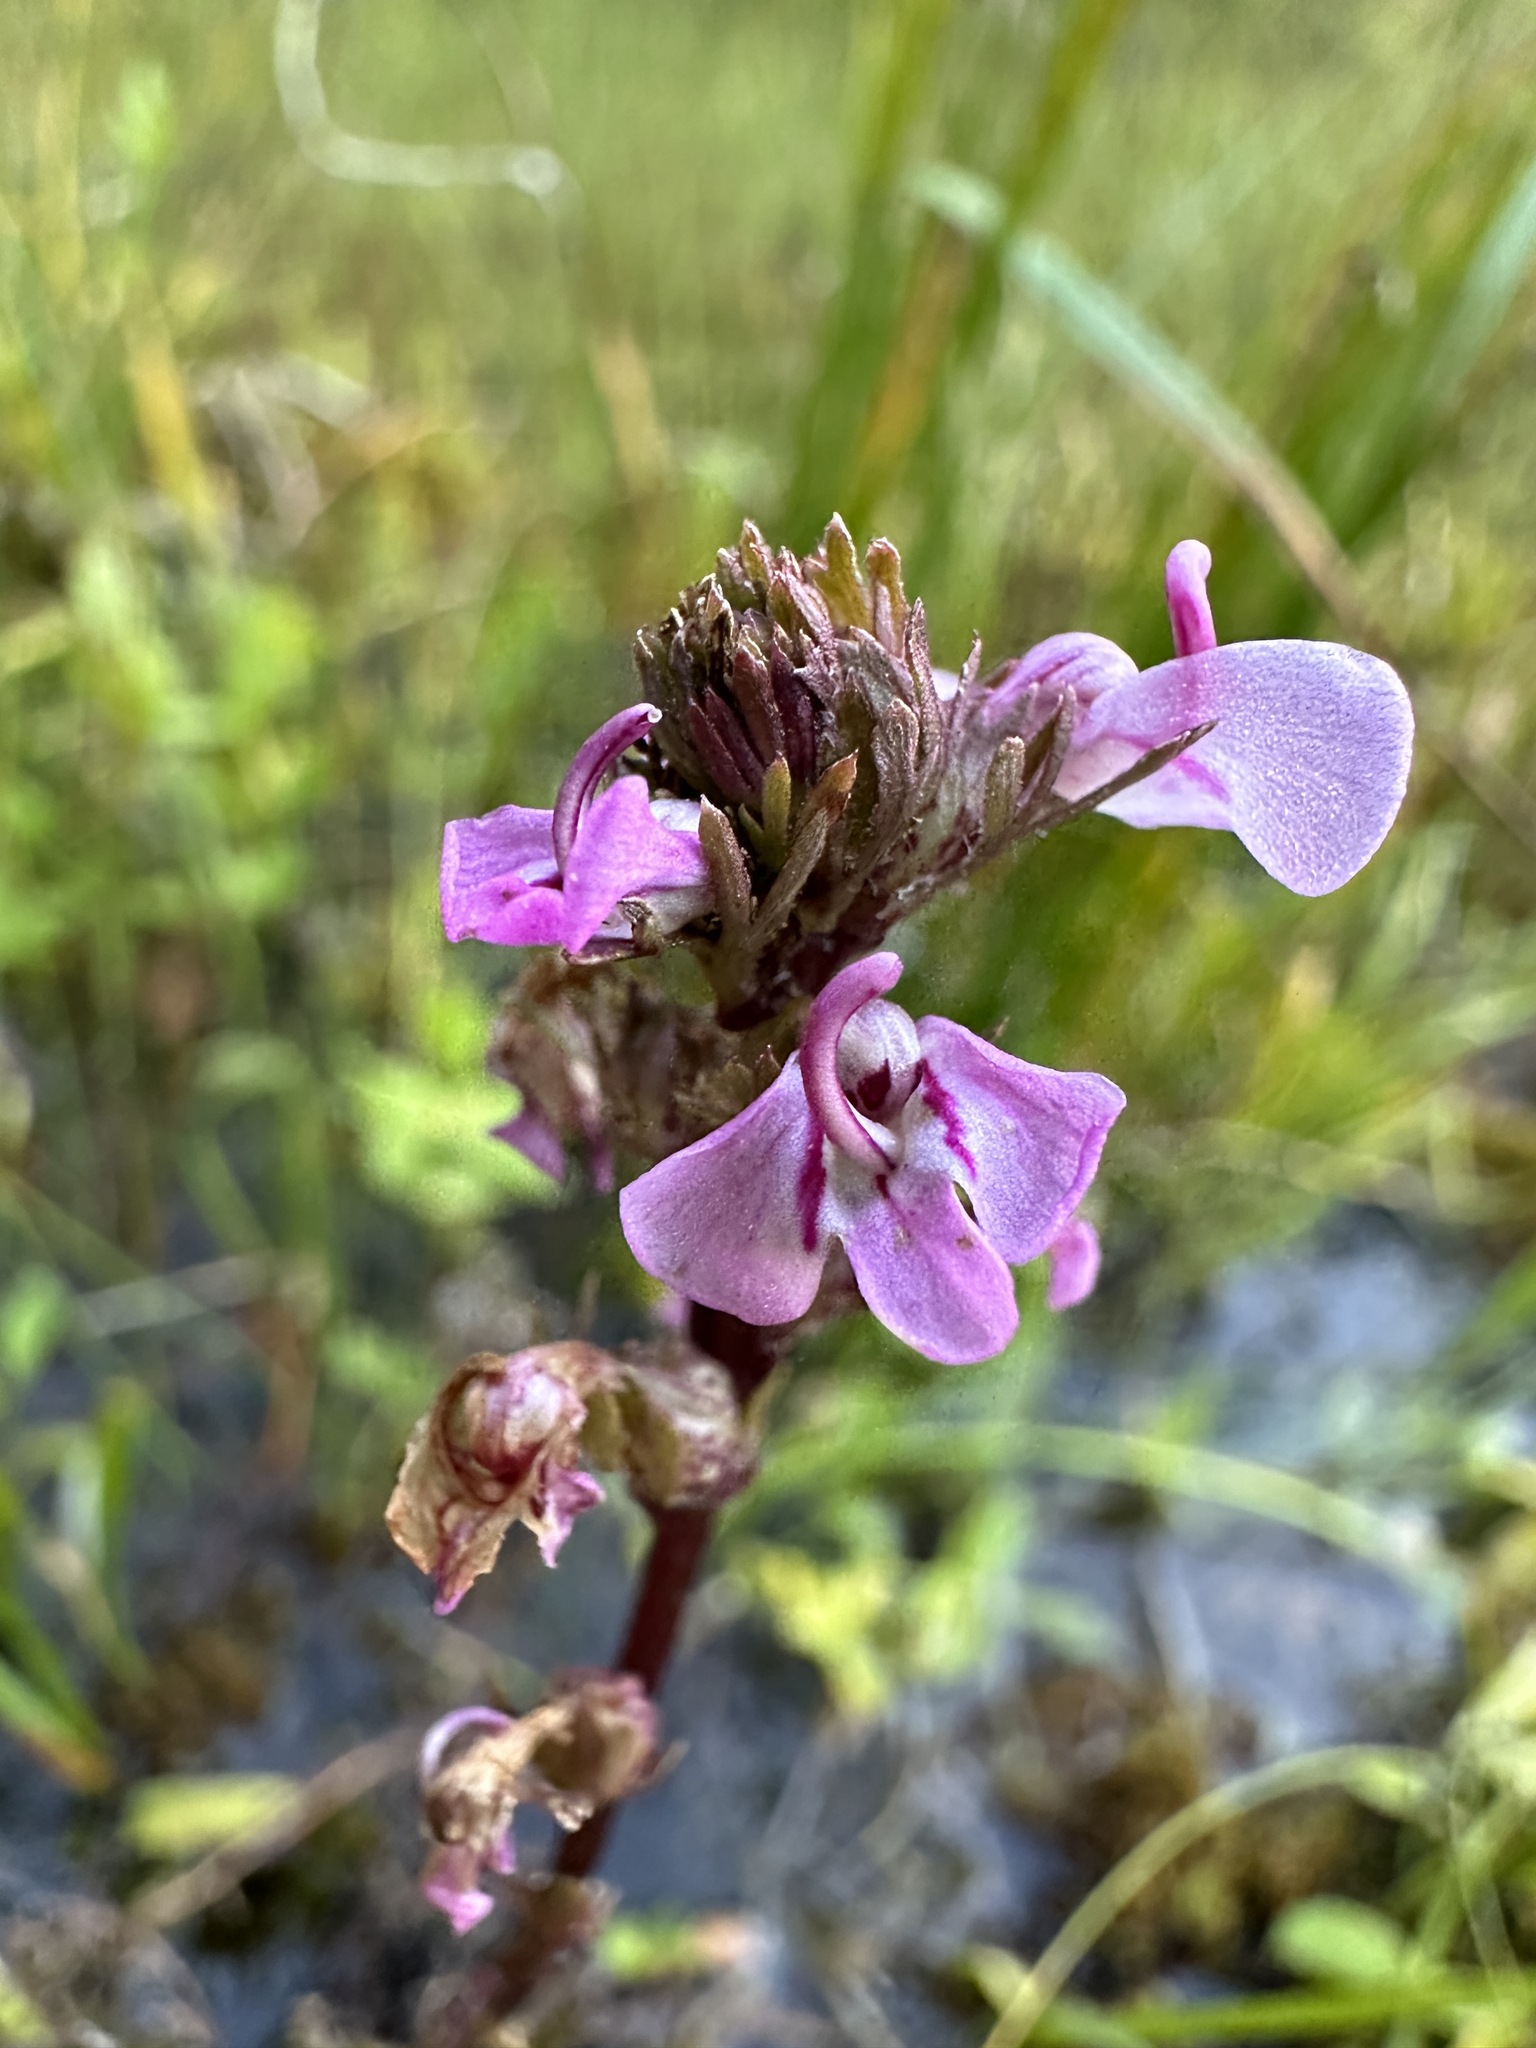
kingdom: Plantae
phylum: Tracheophyta
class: Magnoliopsida
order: Lamiales
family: Orobanchaceae
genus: Pedicularis
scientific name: Pedicularis attollens
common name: Slender pedicularis
